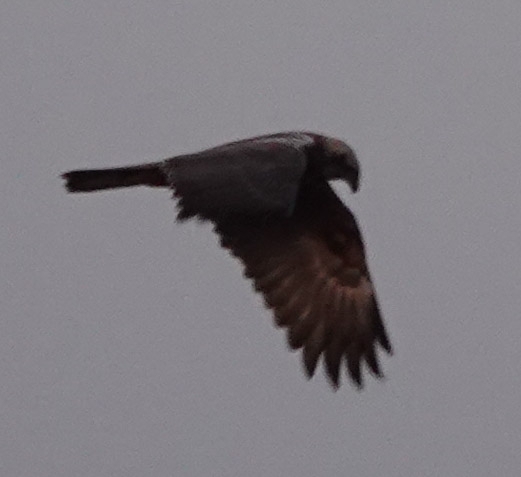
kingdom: Animalia
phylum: Chordata
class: Aves
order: Accipitriformes
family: Accipitridae
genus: Circus
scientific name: Circus aeruginosus
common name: Western marsh harrier
